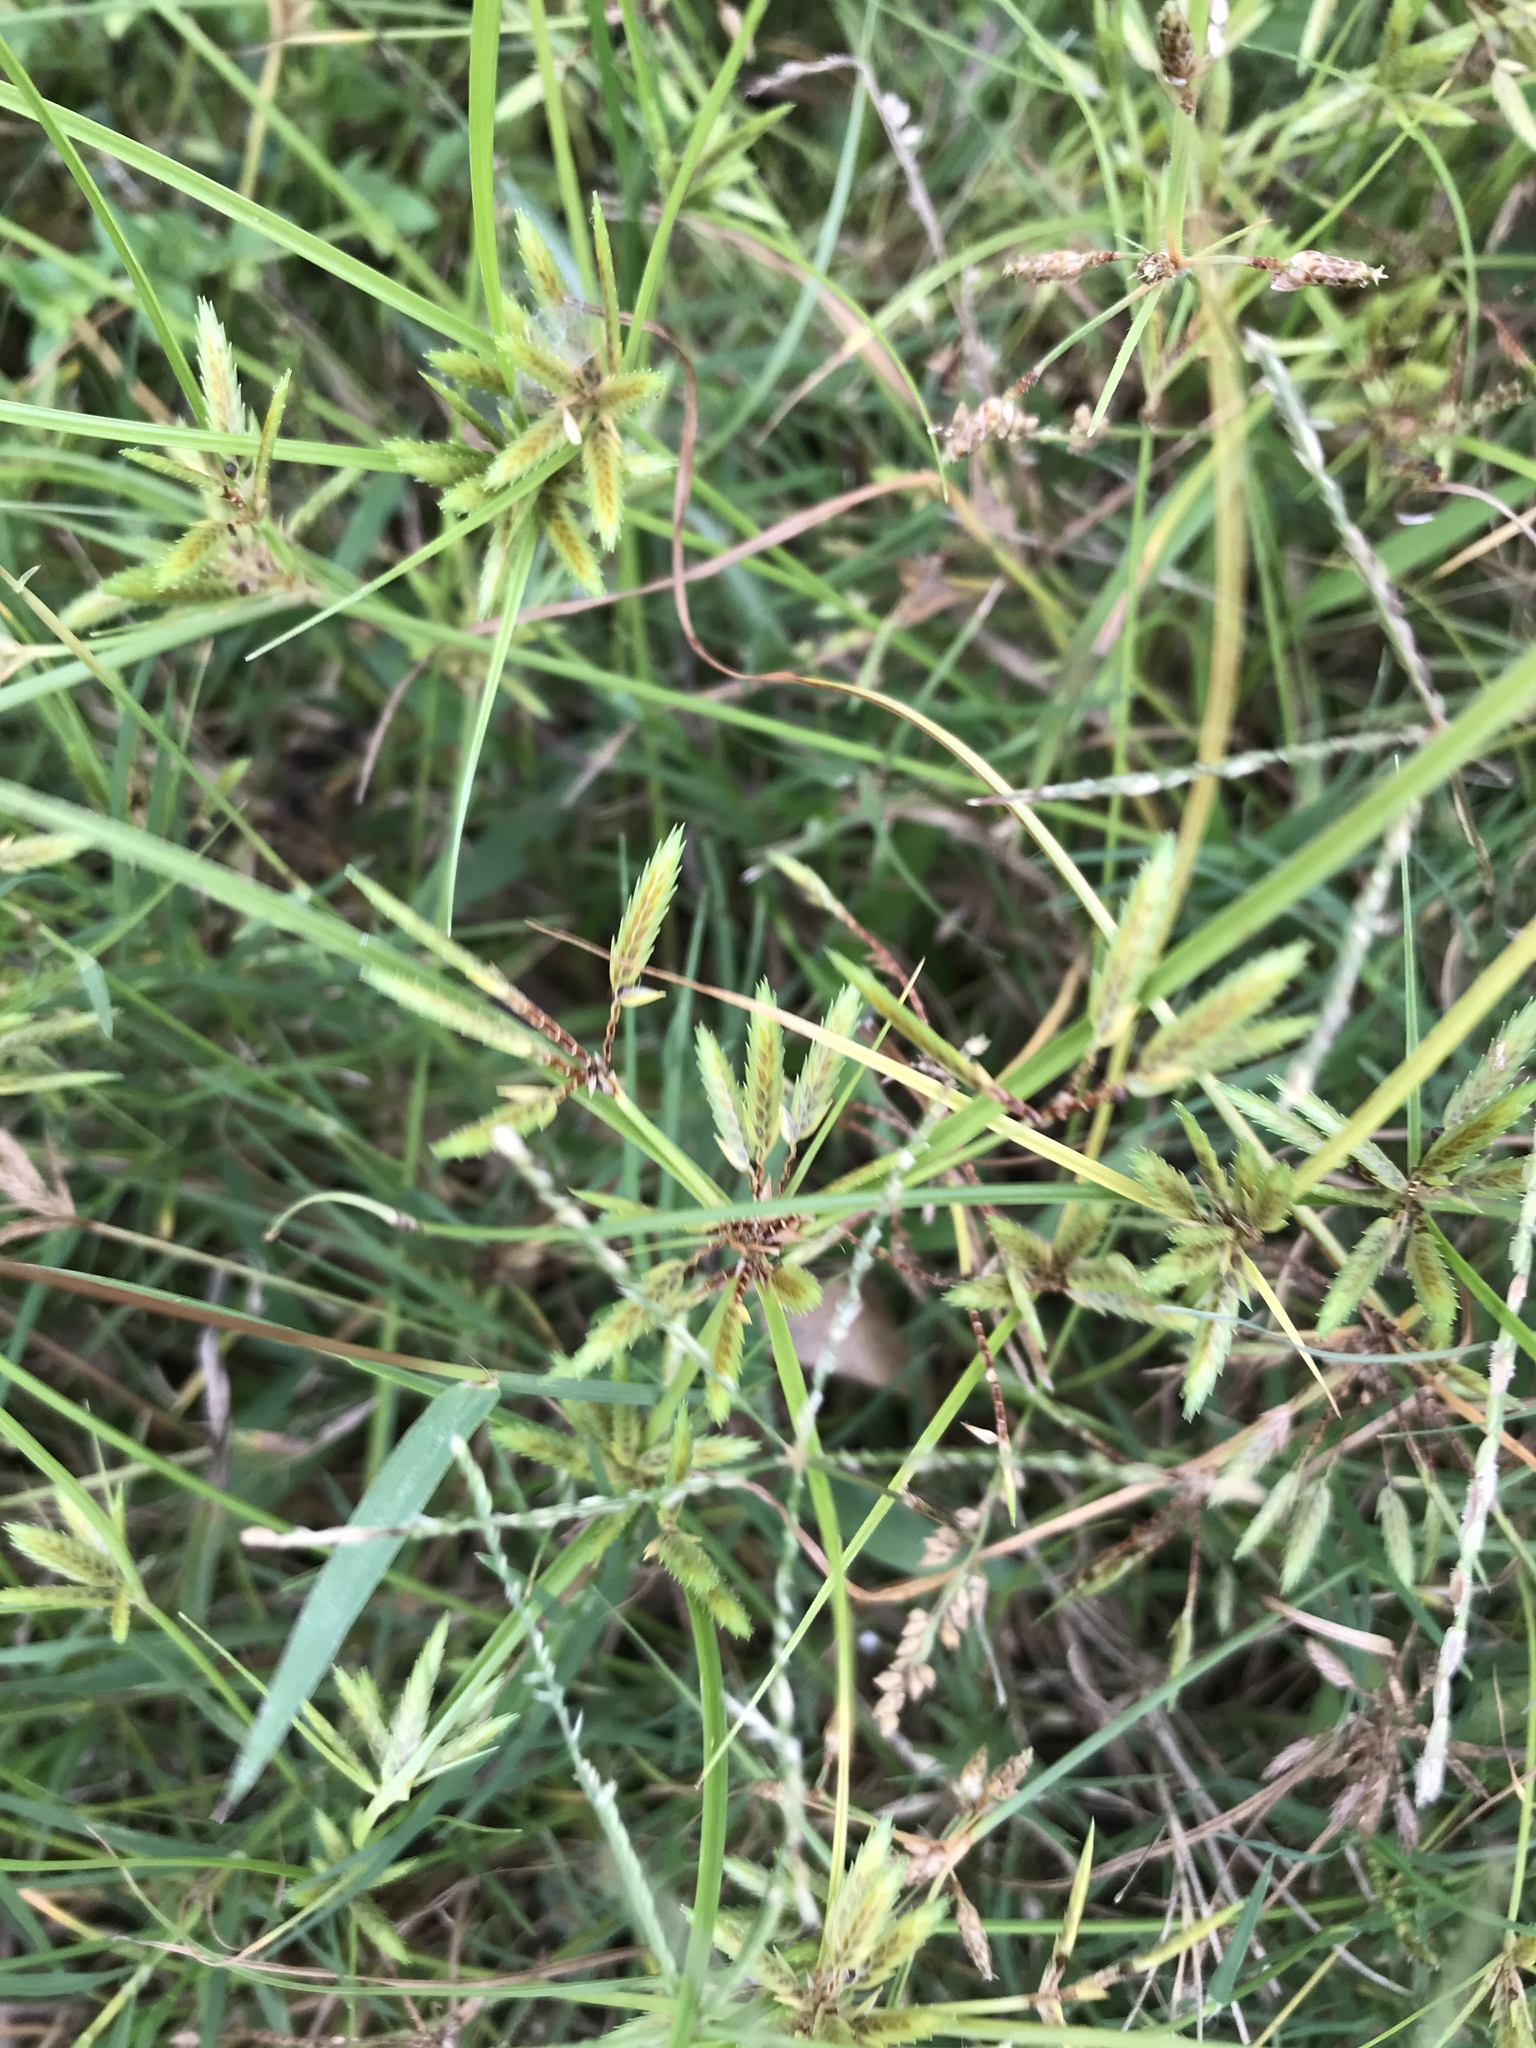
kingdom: Plantae
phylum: Tracheophyta
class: Liliopsida
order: Poales
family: Cyperaceae
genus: Cyperus
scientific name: Cyperus compressus
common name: Poorland flatsedge
